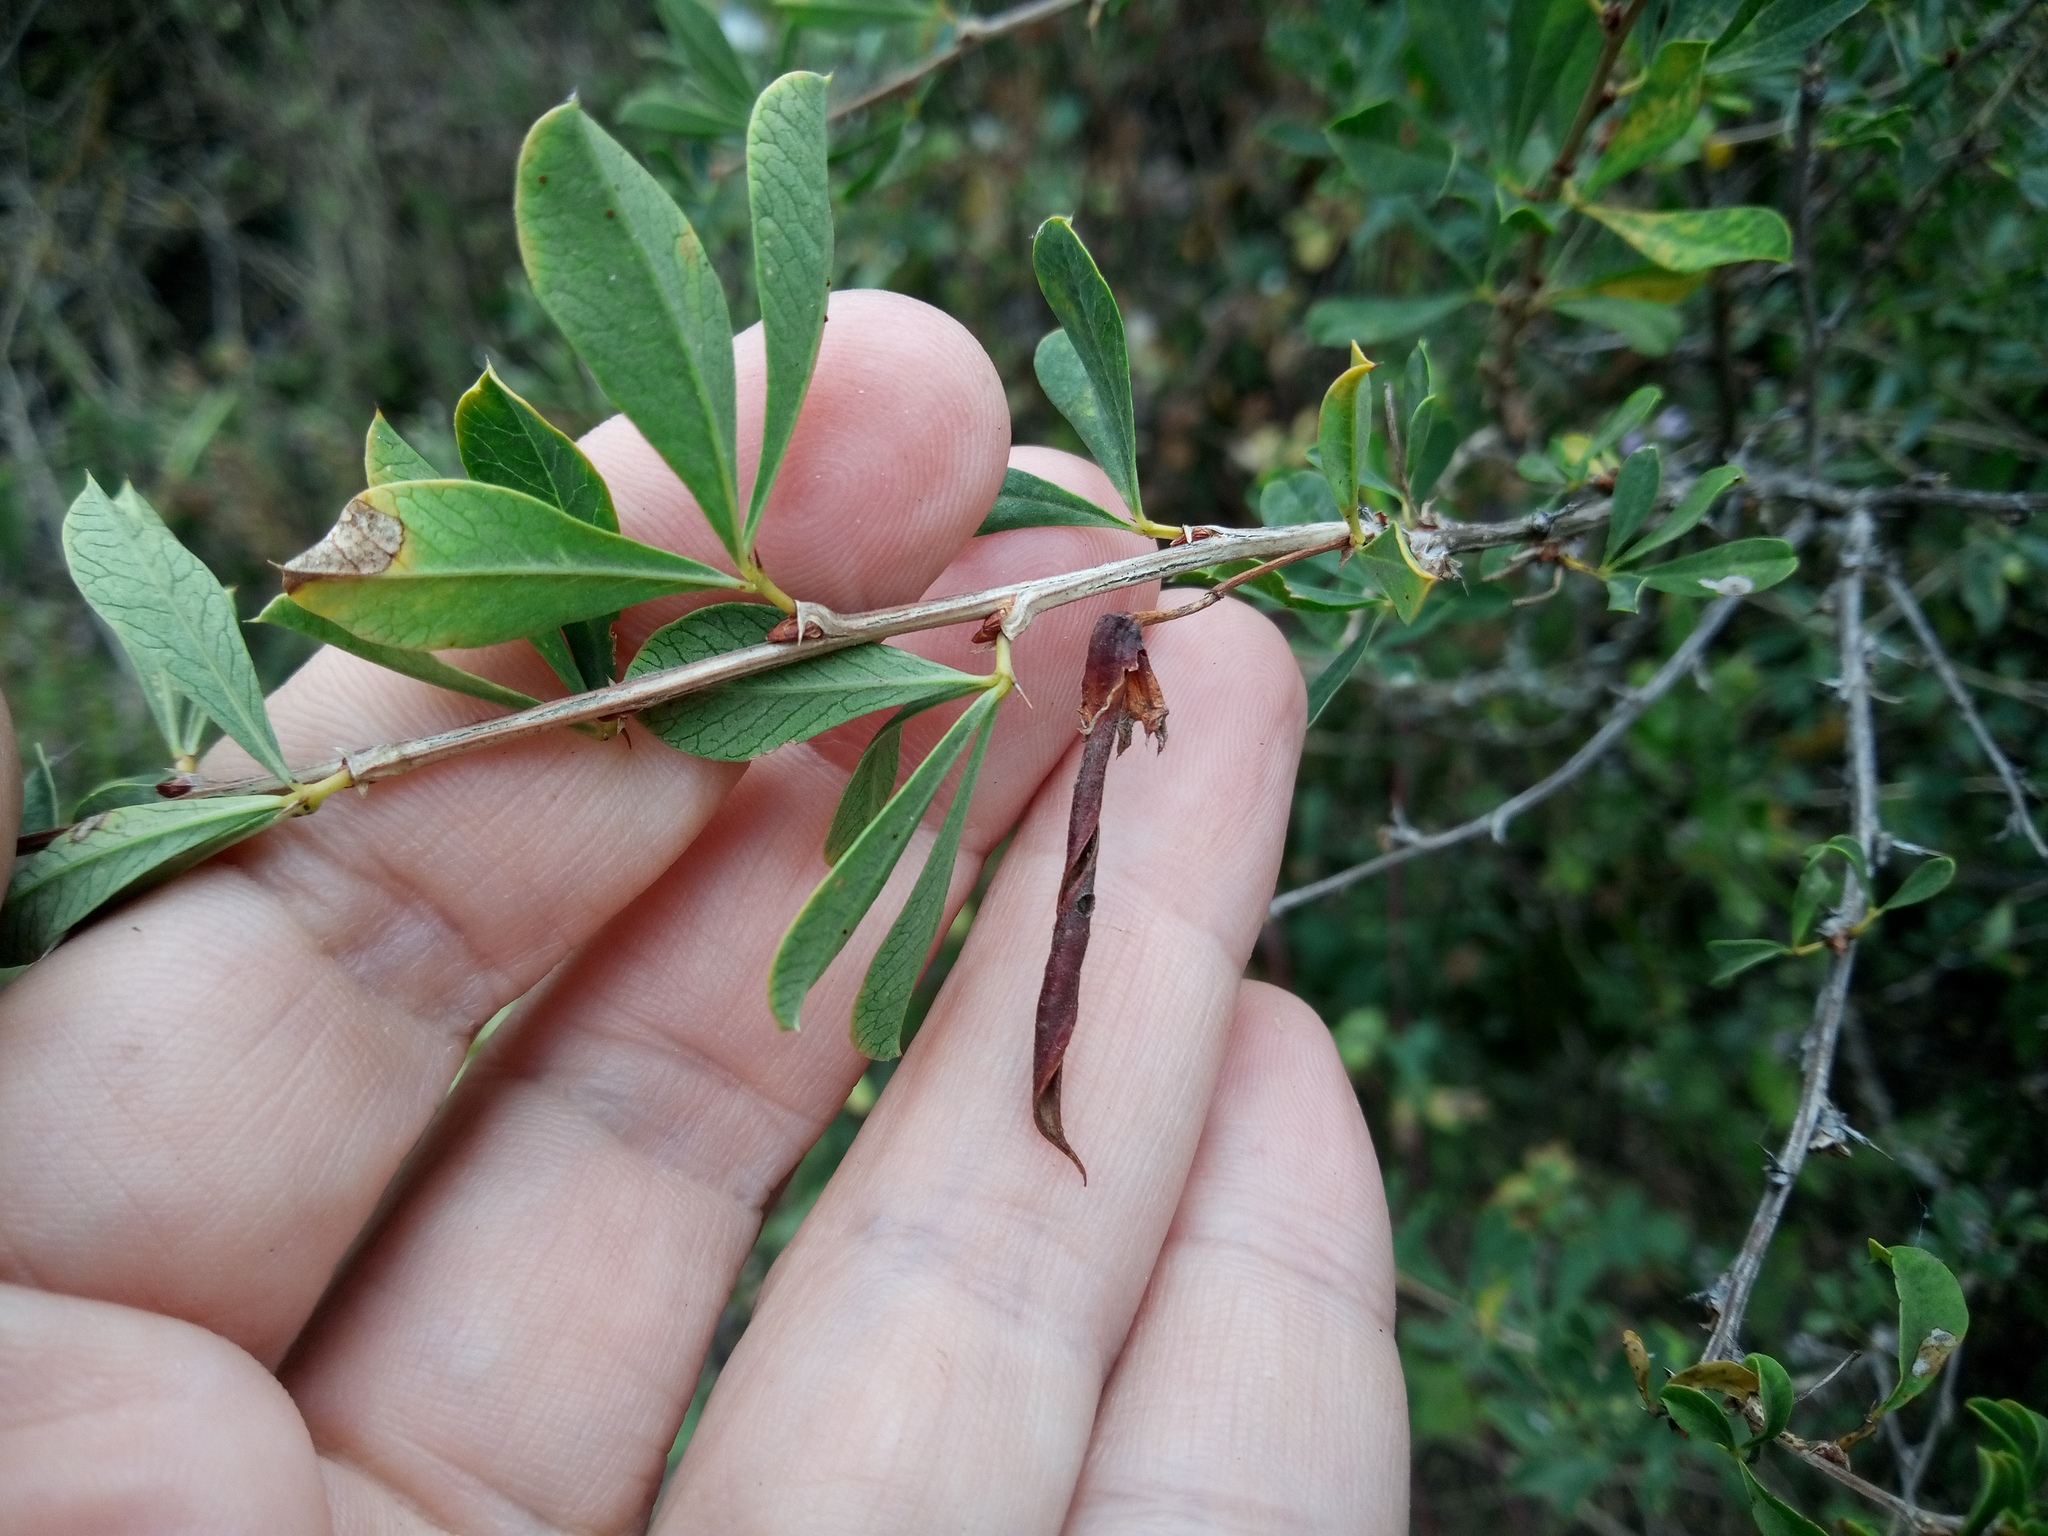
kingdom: Plantae
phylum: Tracheophyta
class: Magnoliopsida
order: Fabales
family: Fabaceae
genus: Caragana
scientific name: Caragana frutex
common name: Russian peashrub
